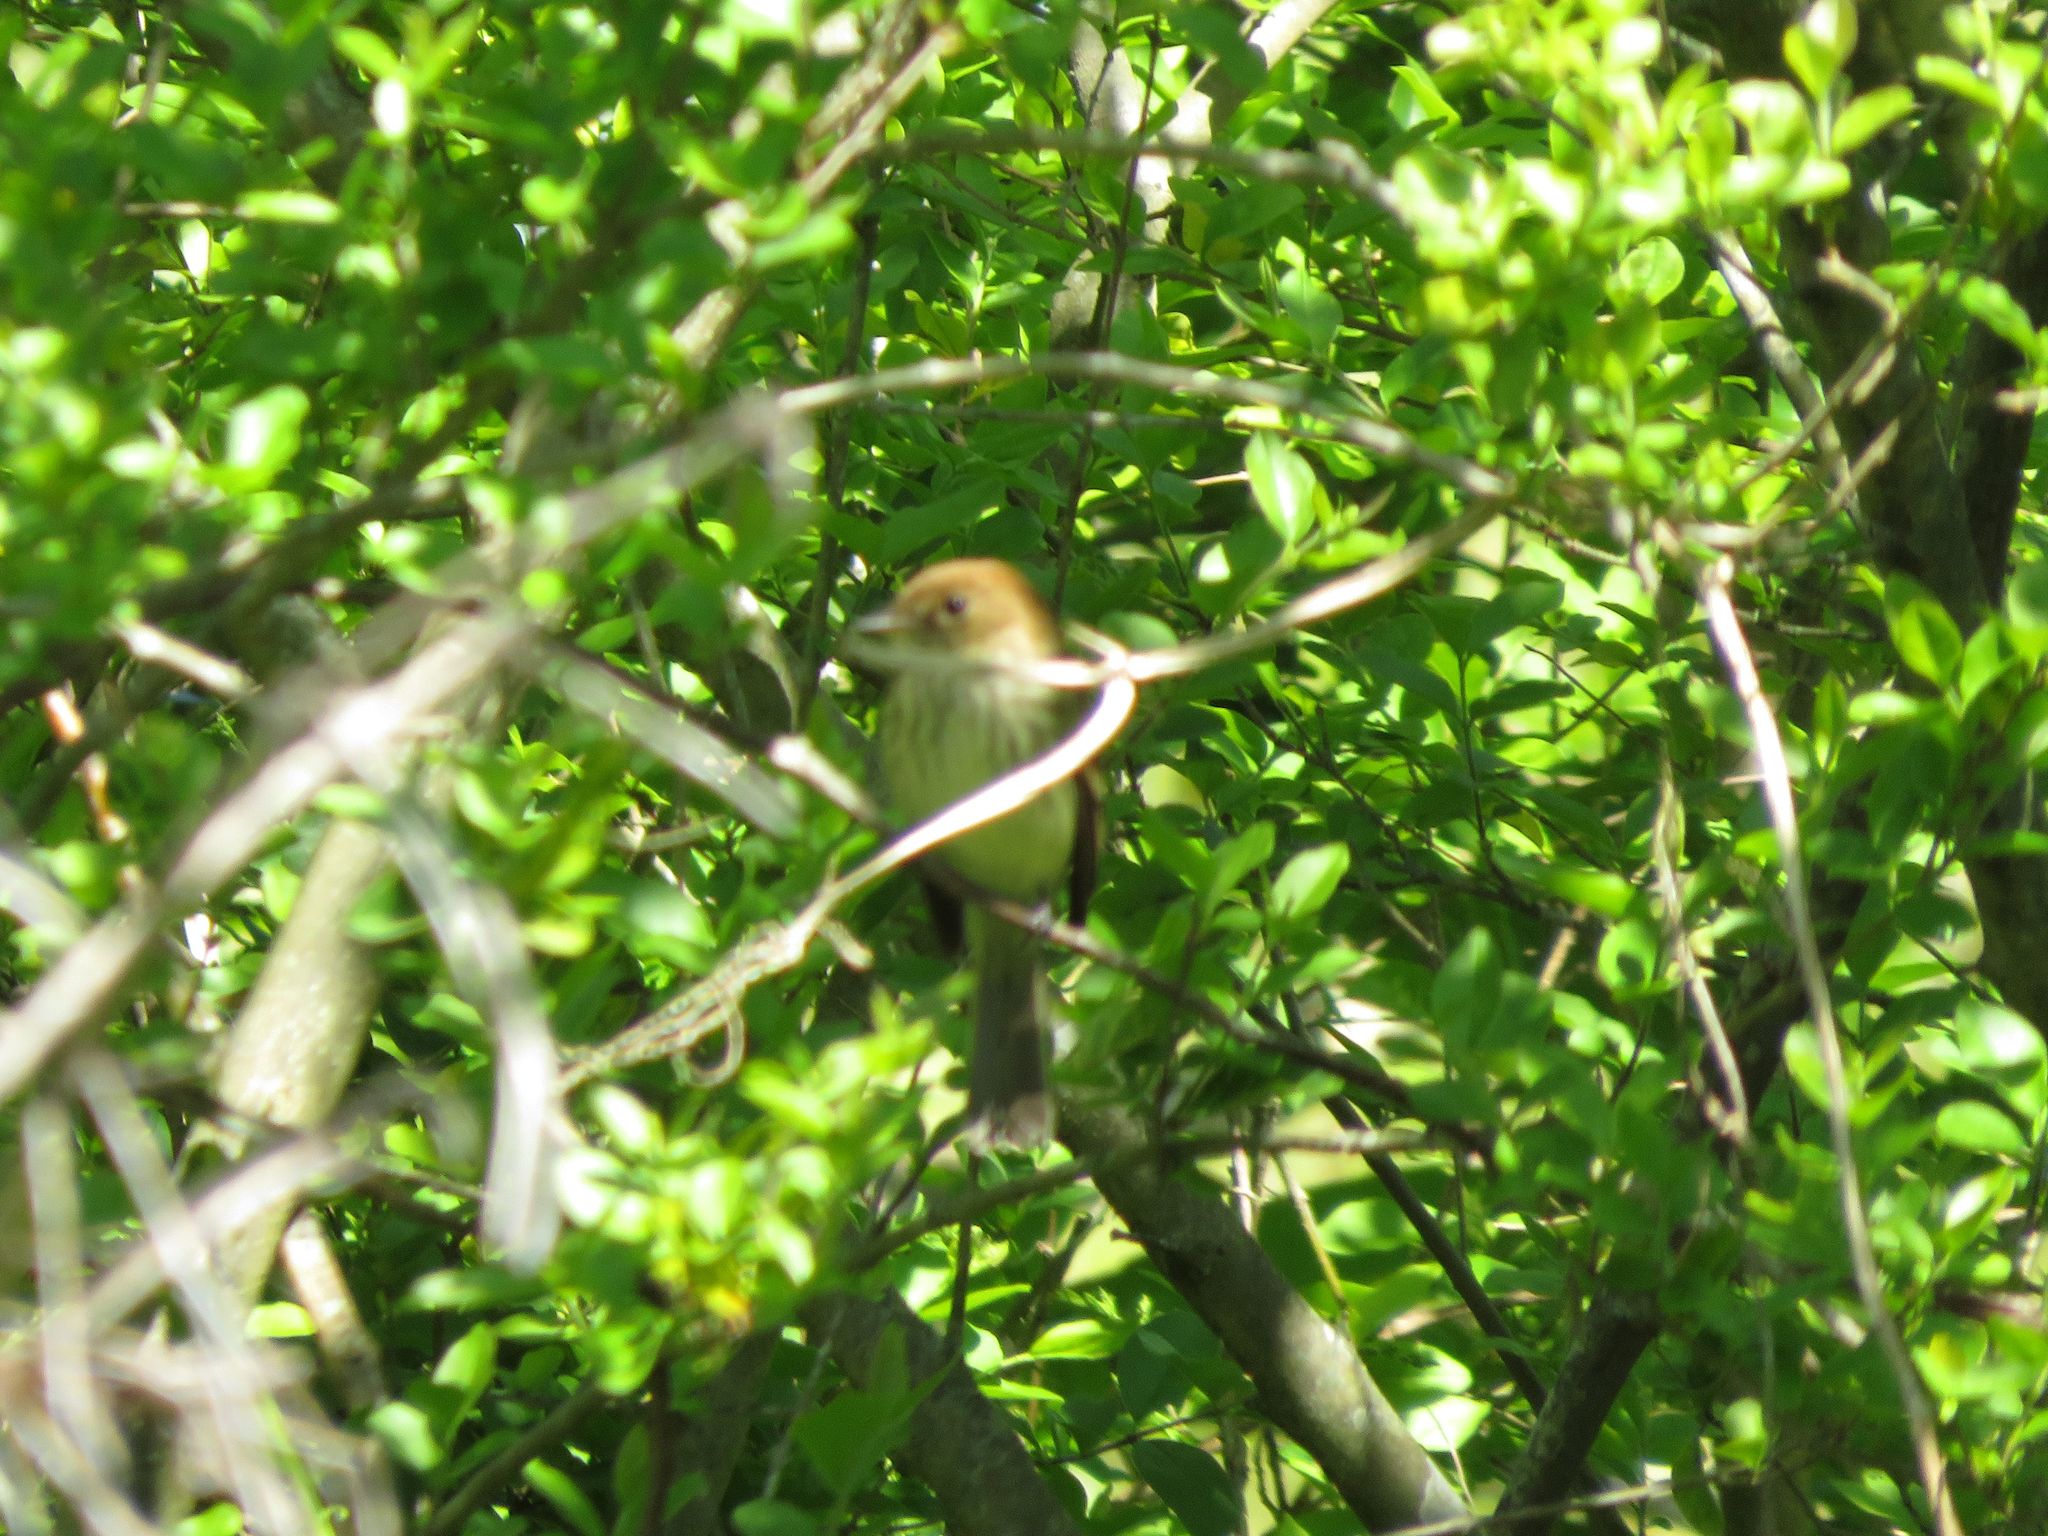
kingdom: Animalia
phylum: Chordata
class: Aves
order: Passeriformes
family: Tyrannidae
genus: Myiophobus
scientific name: Myiophobus fasciatus
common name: Bran-colored flycatcher
